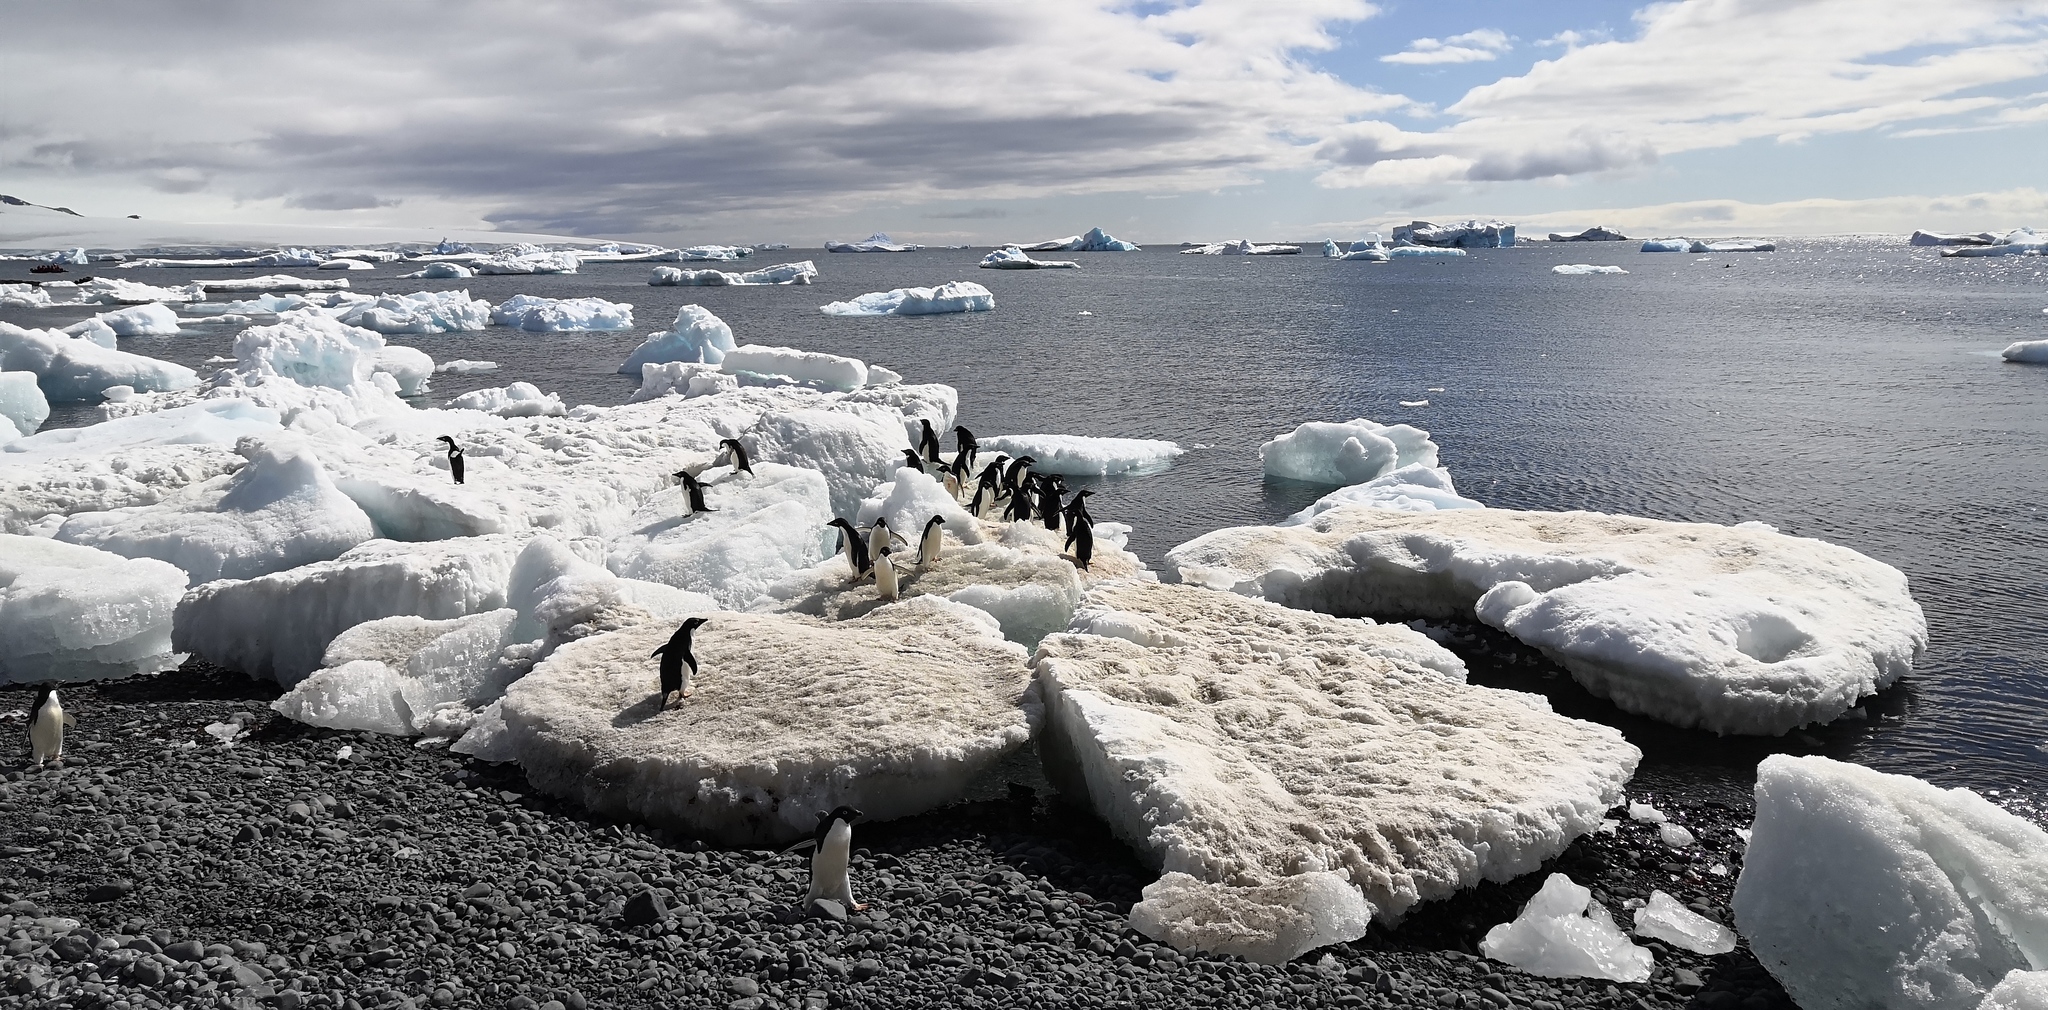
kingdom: Animalia
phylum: Chordata
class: Aves
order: Sphenisciformes
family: Spheniscidae
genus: Pygoscelis
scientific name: Pygoscelis adeliae
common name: Adelie penguin
